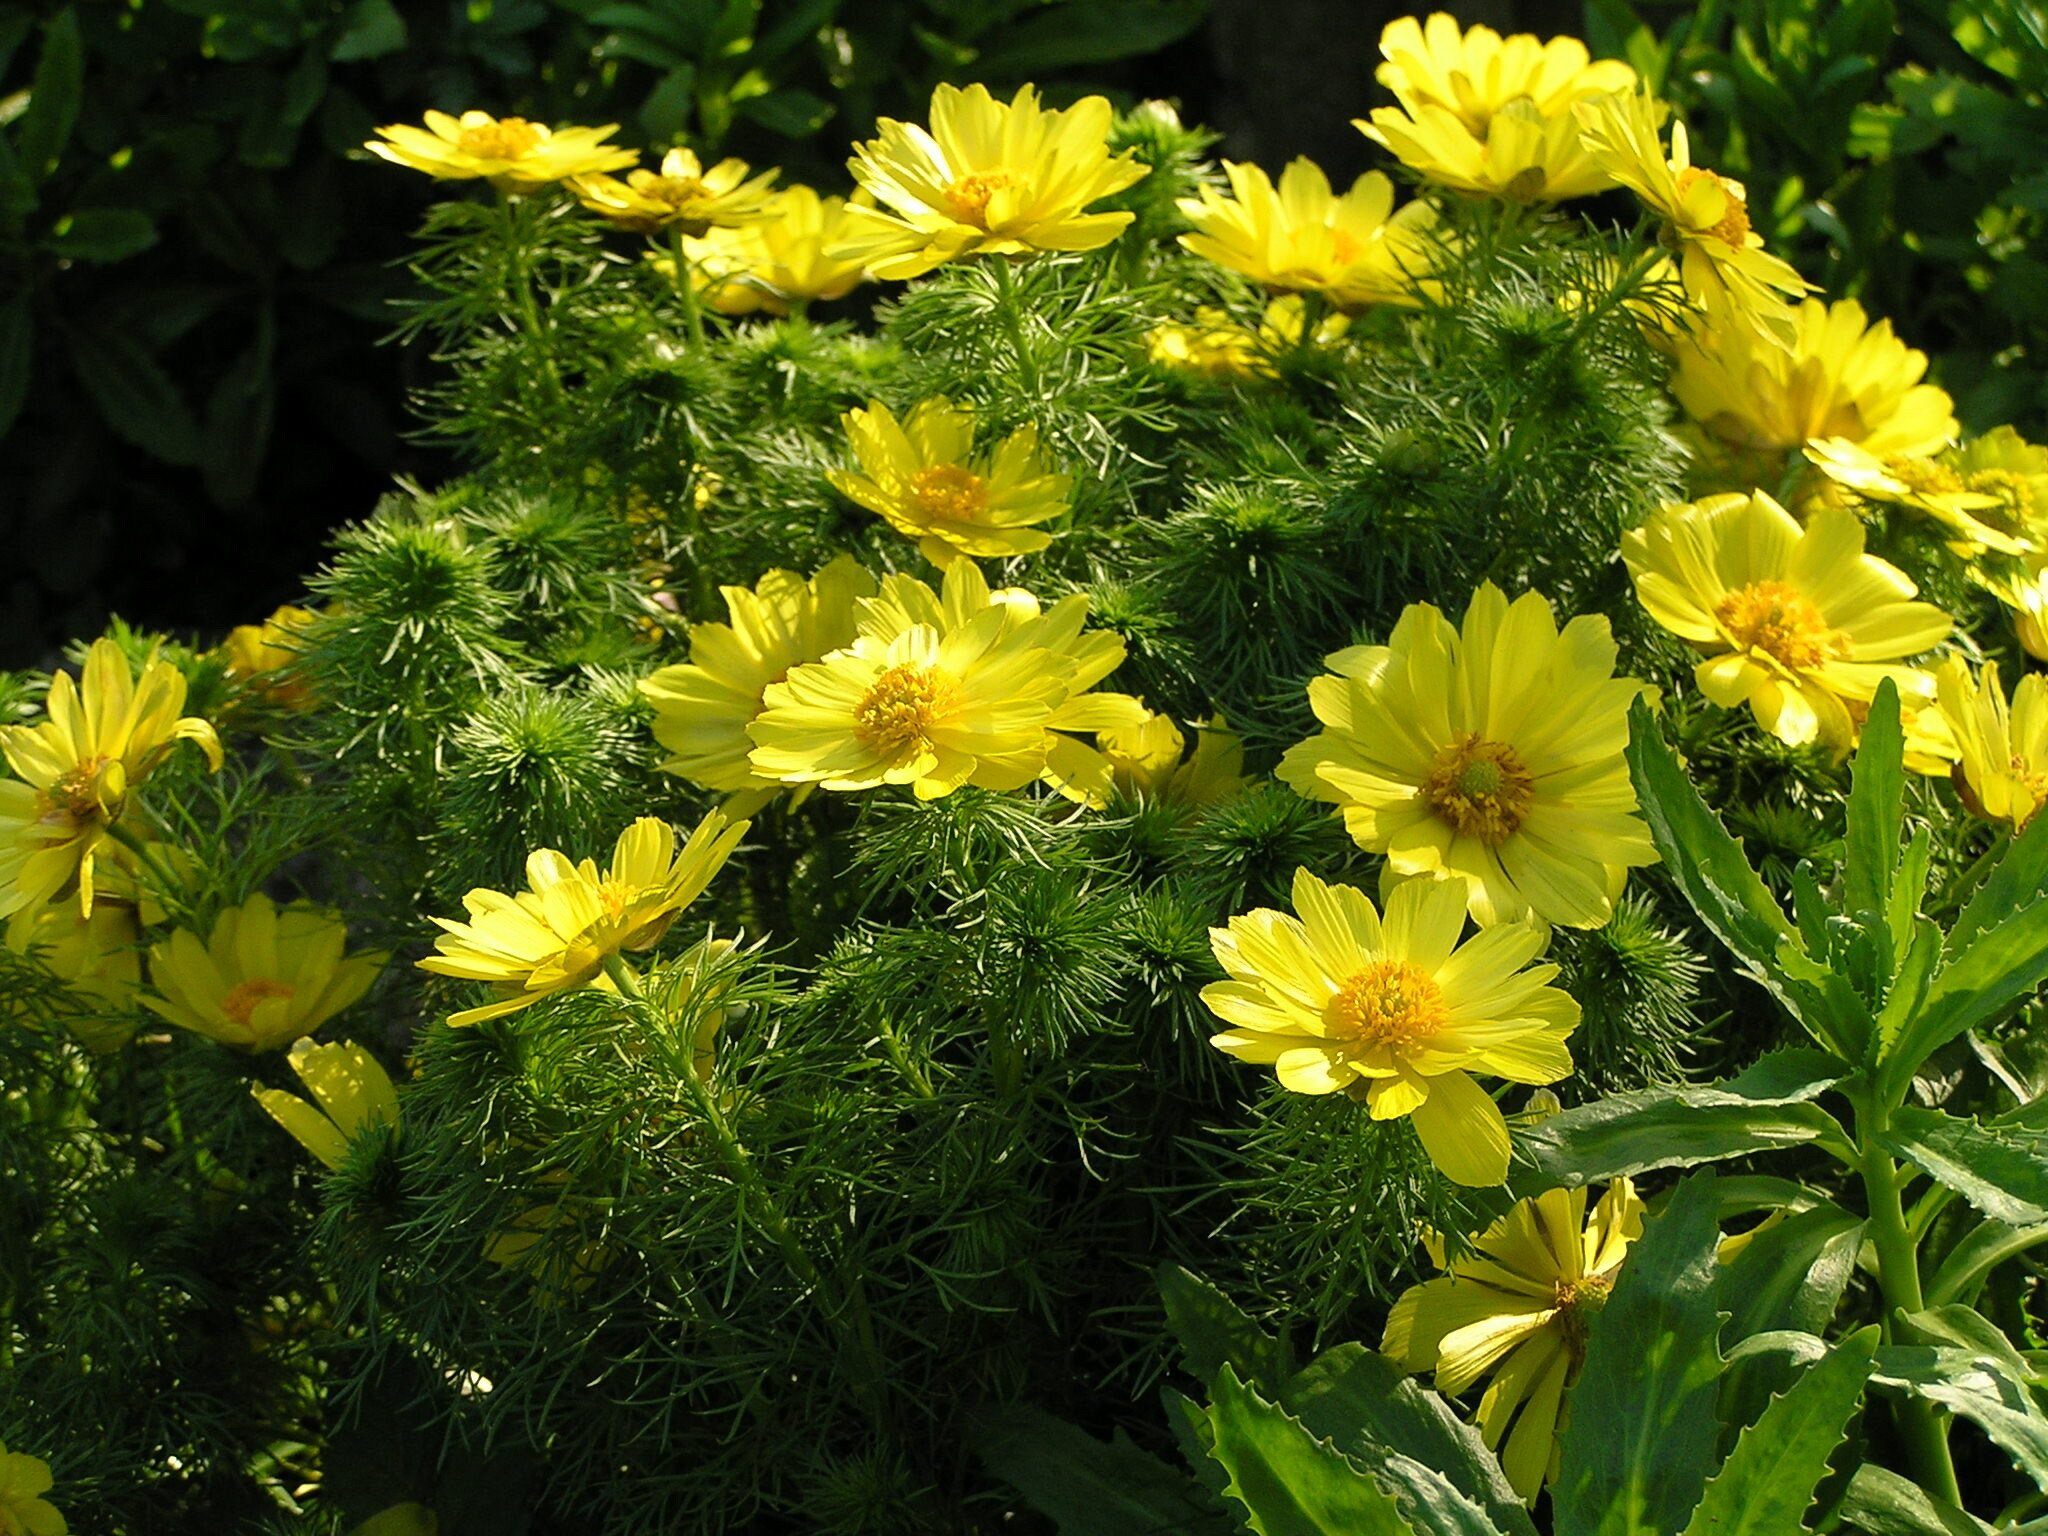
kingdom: Plantae
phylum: Tracheophyta
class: Magnoliopsida
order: Ranunculales
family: Ranunculaceae
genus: Adonis
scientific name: Adonis vernalis
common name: Yellow pheasants-eye
